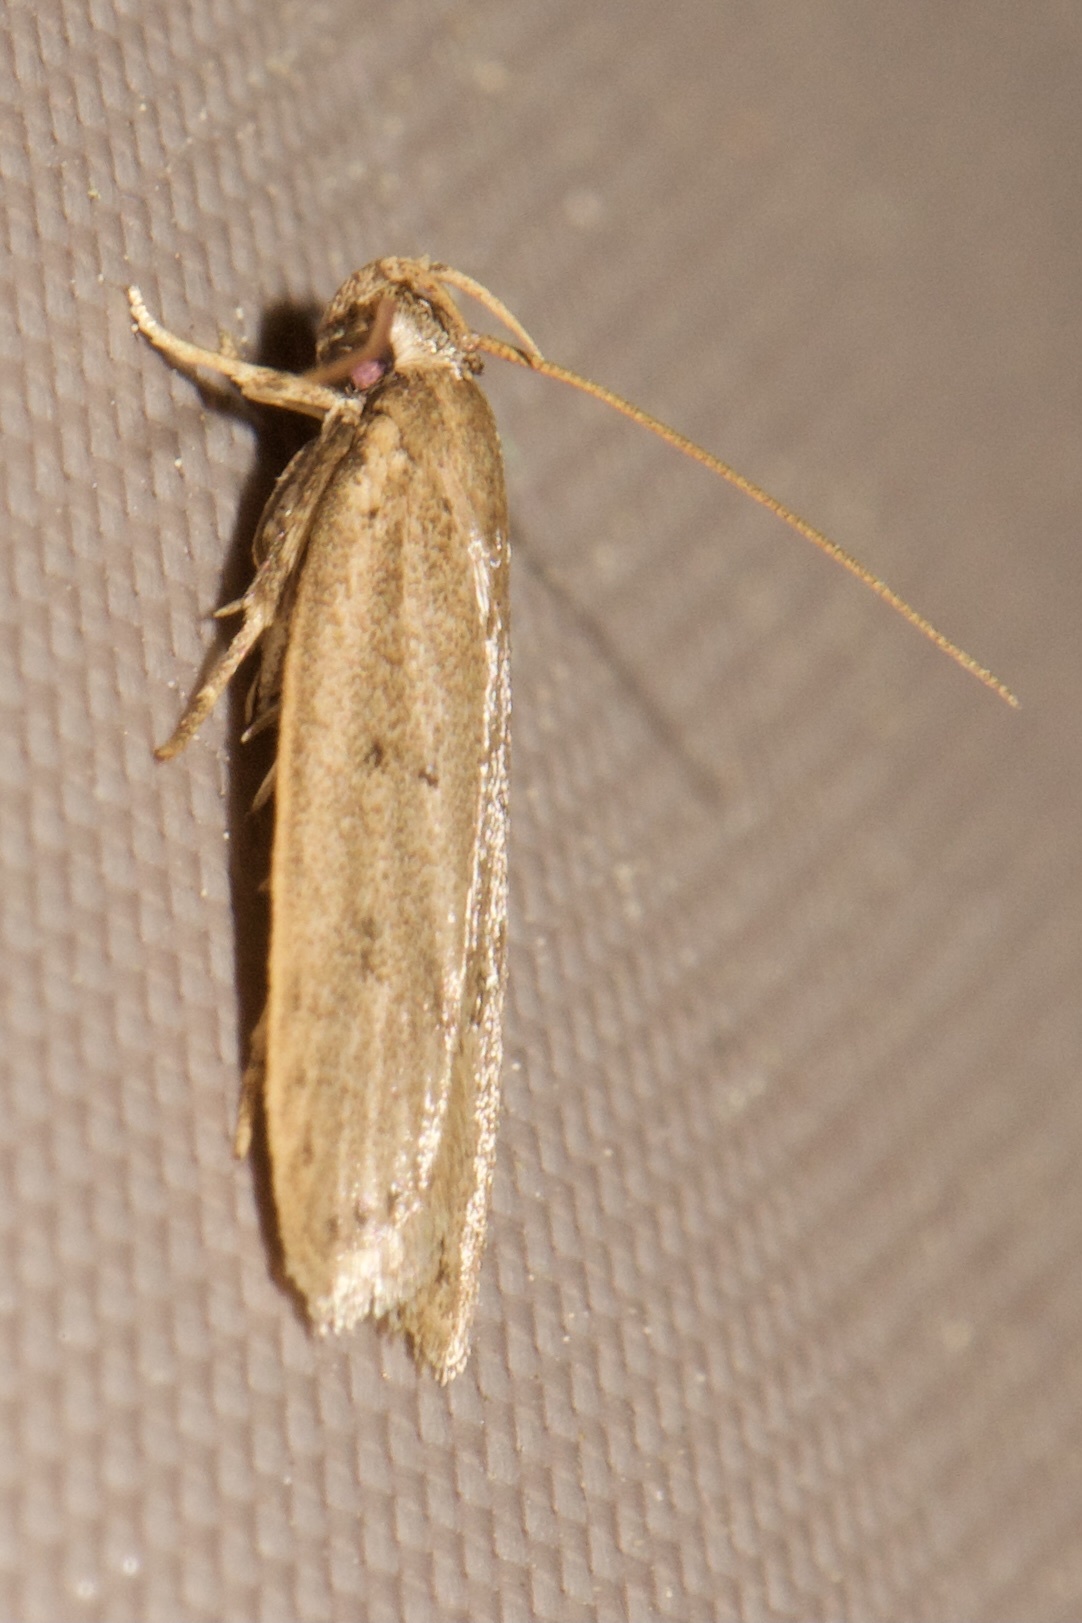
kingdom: Animalia
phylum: Arthropoda
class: Insecta
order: Lepidoptera
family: Autostichidae
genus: Autosticha
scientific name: Autosticha kyotensis
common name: Kyoto moth
